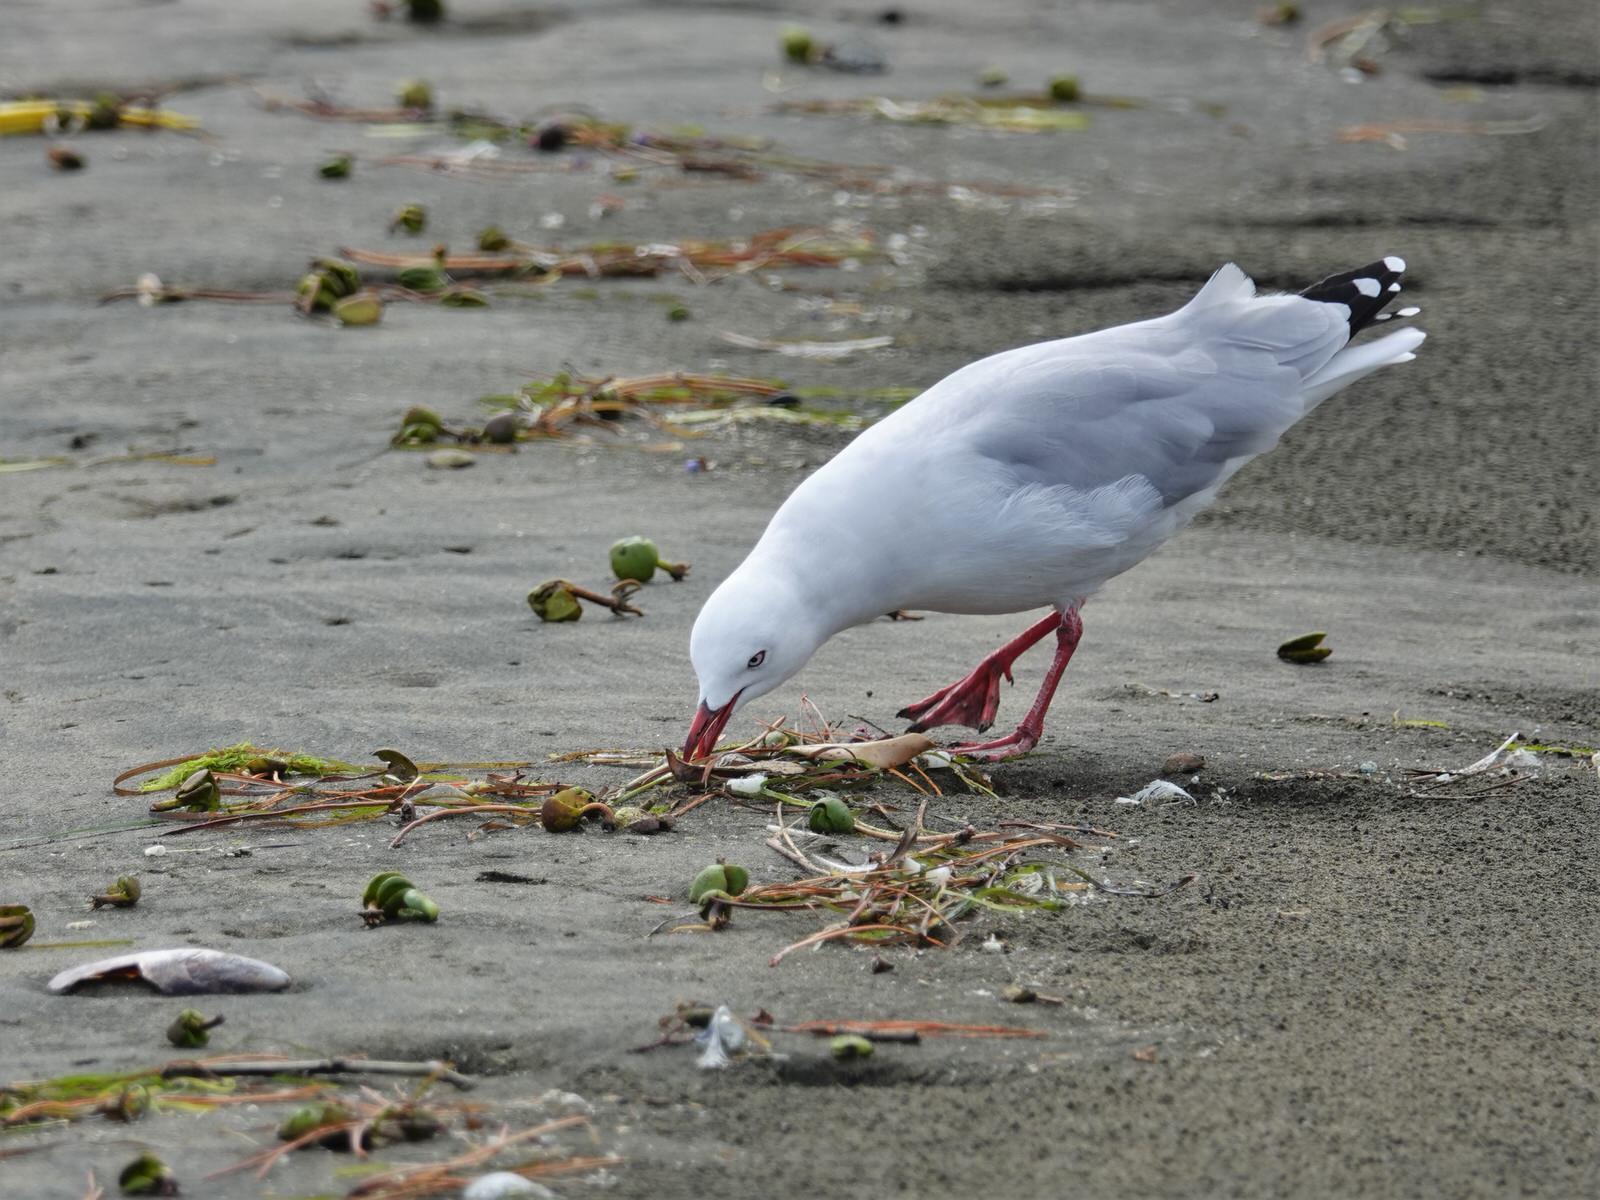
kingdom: Animalia
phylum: Chordata
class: Aves
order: Charadriiformes
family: Laridae
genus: Chroicocephalus
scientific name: Chroicocephalus novaehollandiae
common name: Silver gull
